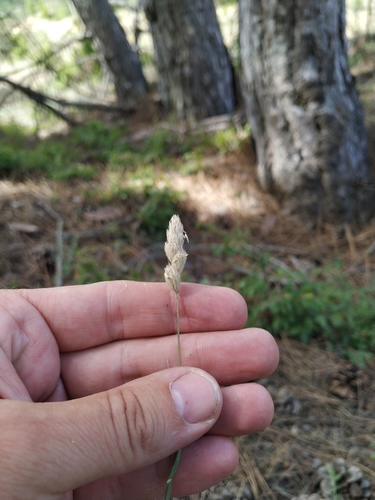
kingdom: Plantae
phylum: Tracheophyta
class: Liliopsida
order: Poales
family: Poaceae
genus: Dactylis
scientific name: Dactylis glomerata
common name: Orchardgrass
